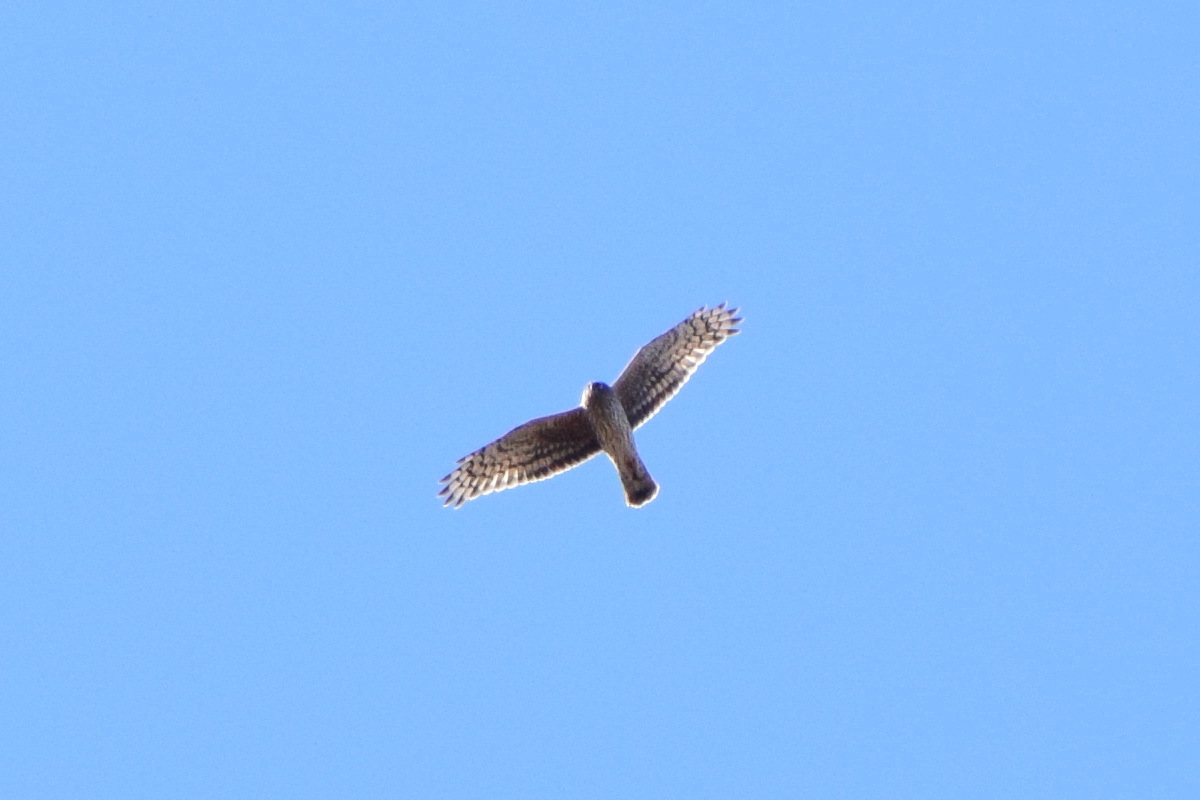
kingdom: Animalia
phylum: Chordata
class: Aves
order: Accipitriformes
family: Accipitridae
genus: Circus
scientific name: Circus cyaneus
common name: Hen harrier
